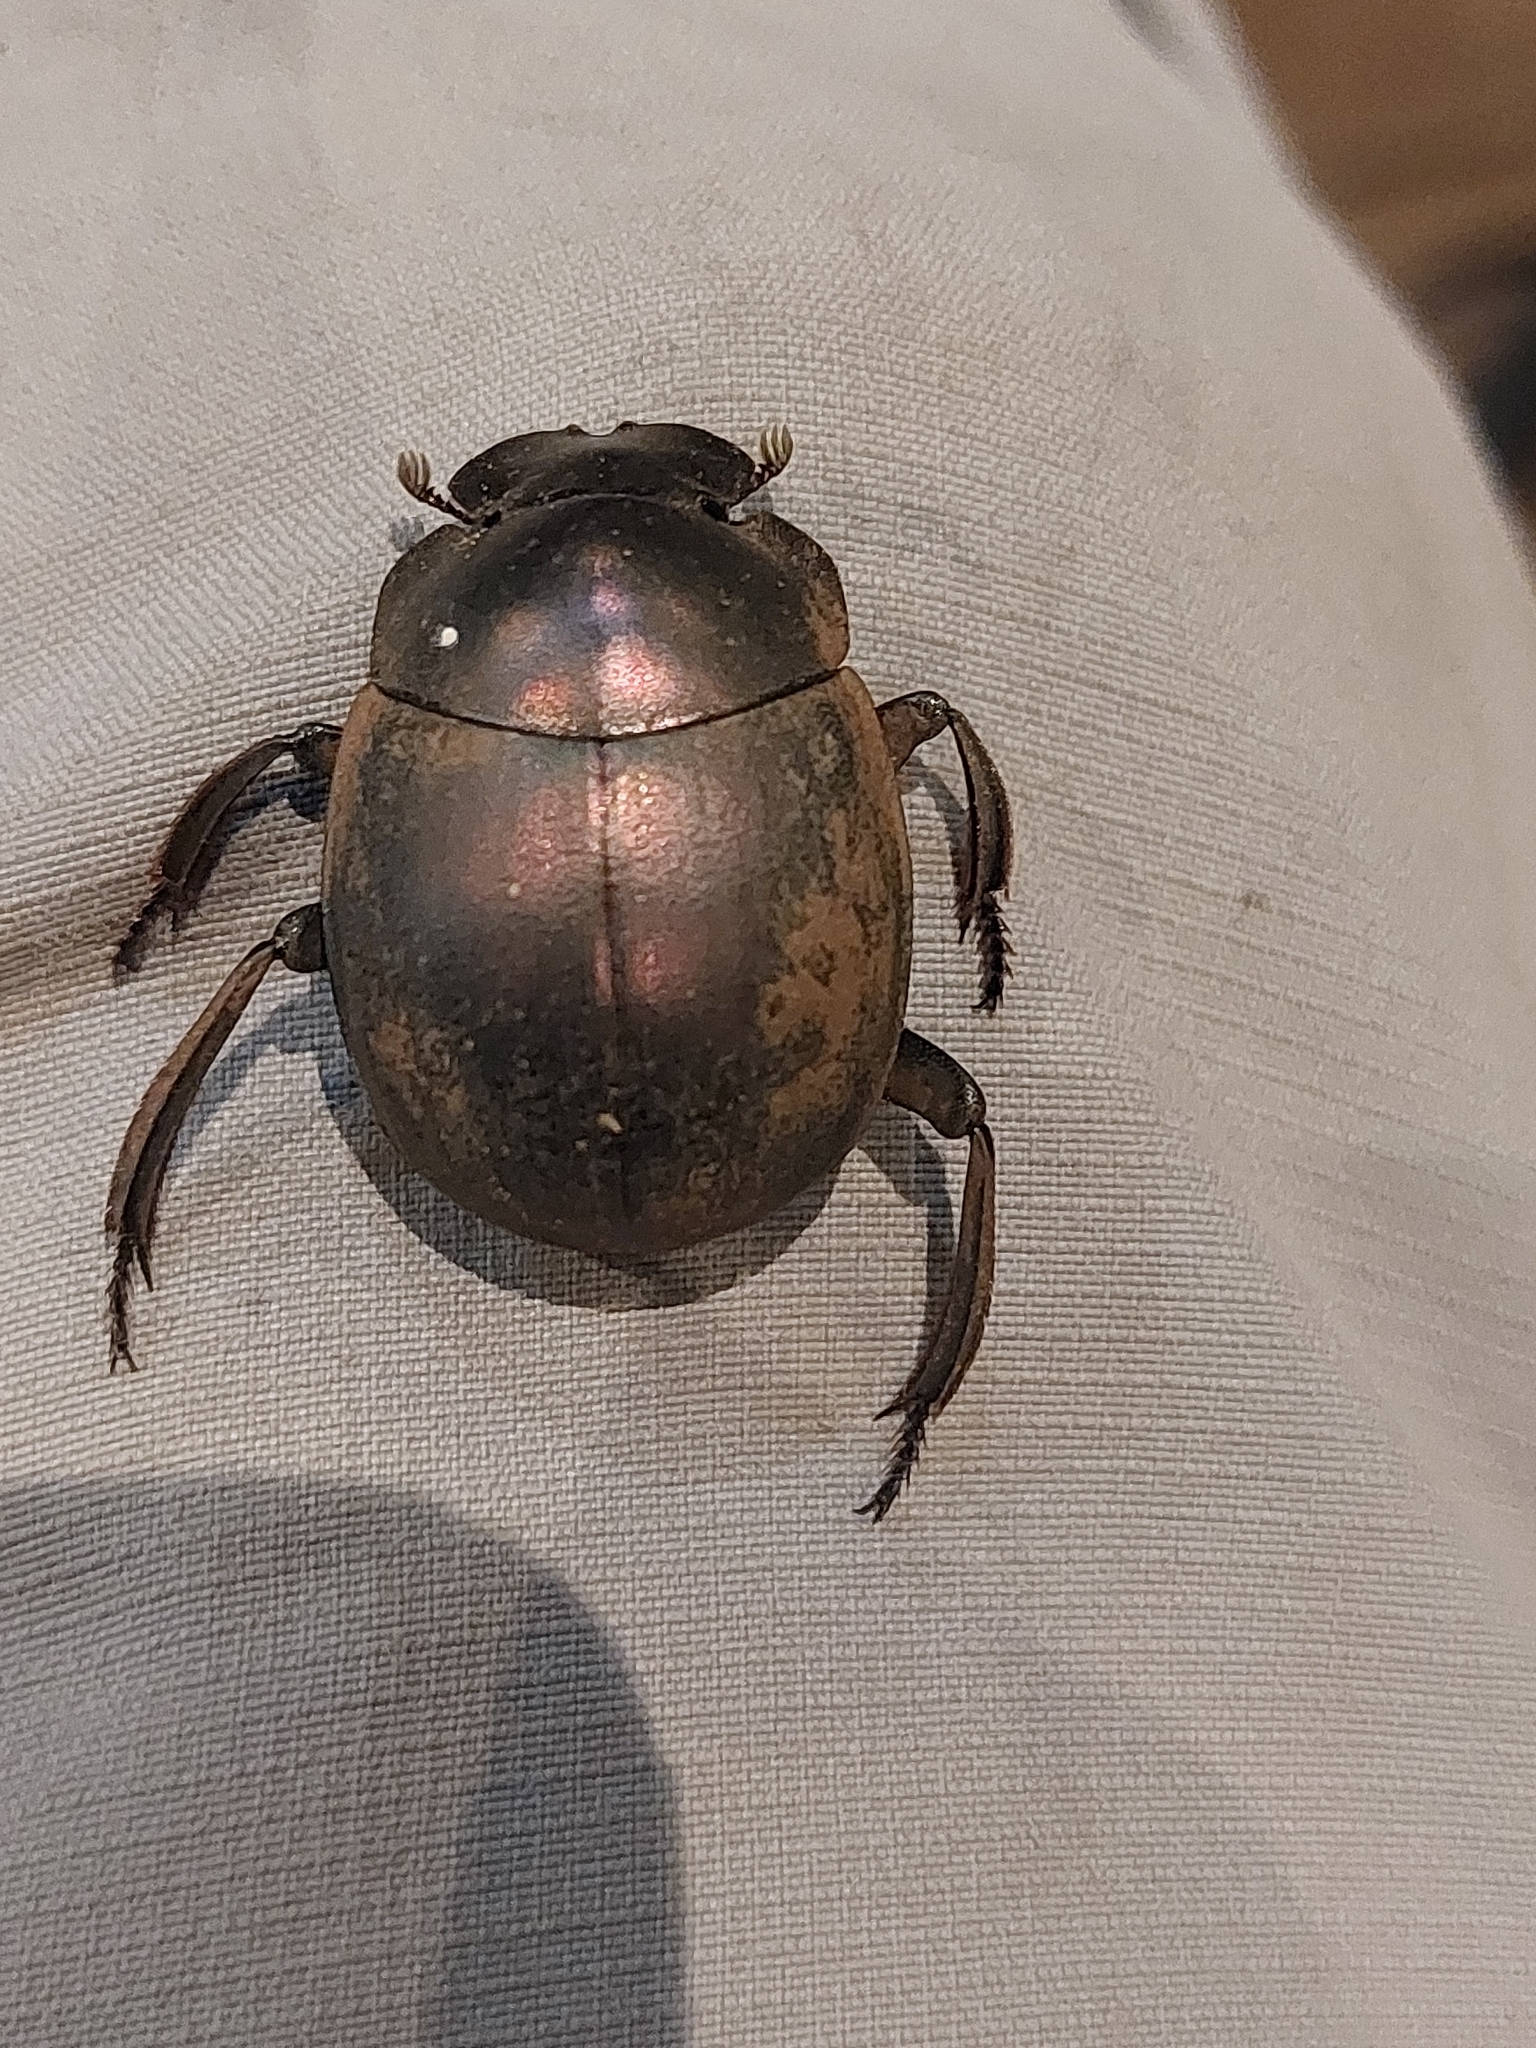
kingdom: Animalia
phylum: Arthropoda
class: Insecta
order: Coleoptera
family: Scarabaeidae
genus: Chalconotus
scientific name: Chalconotus convexus
